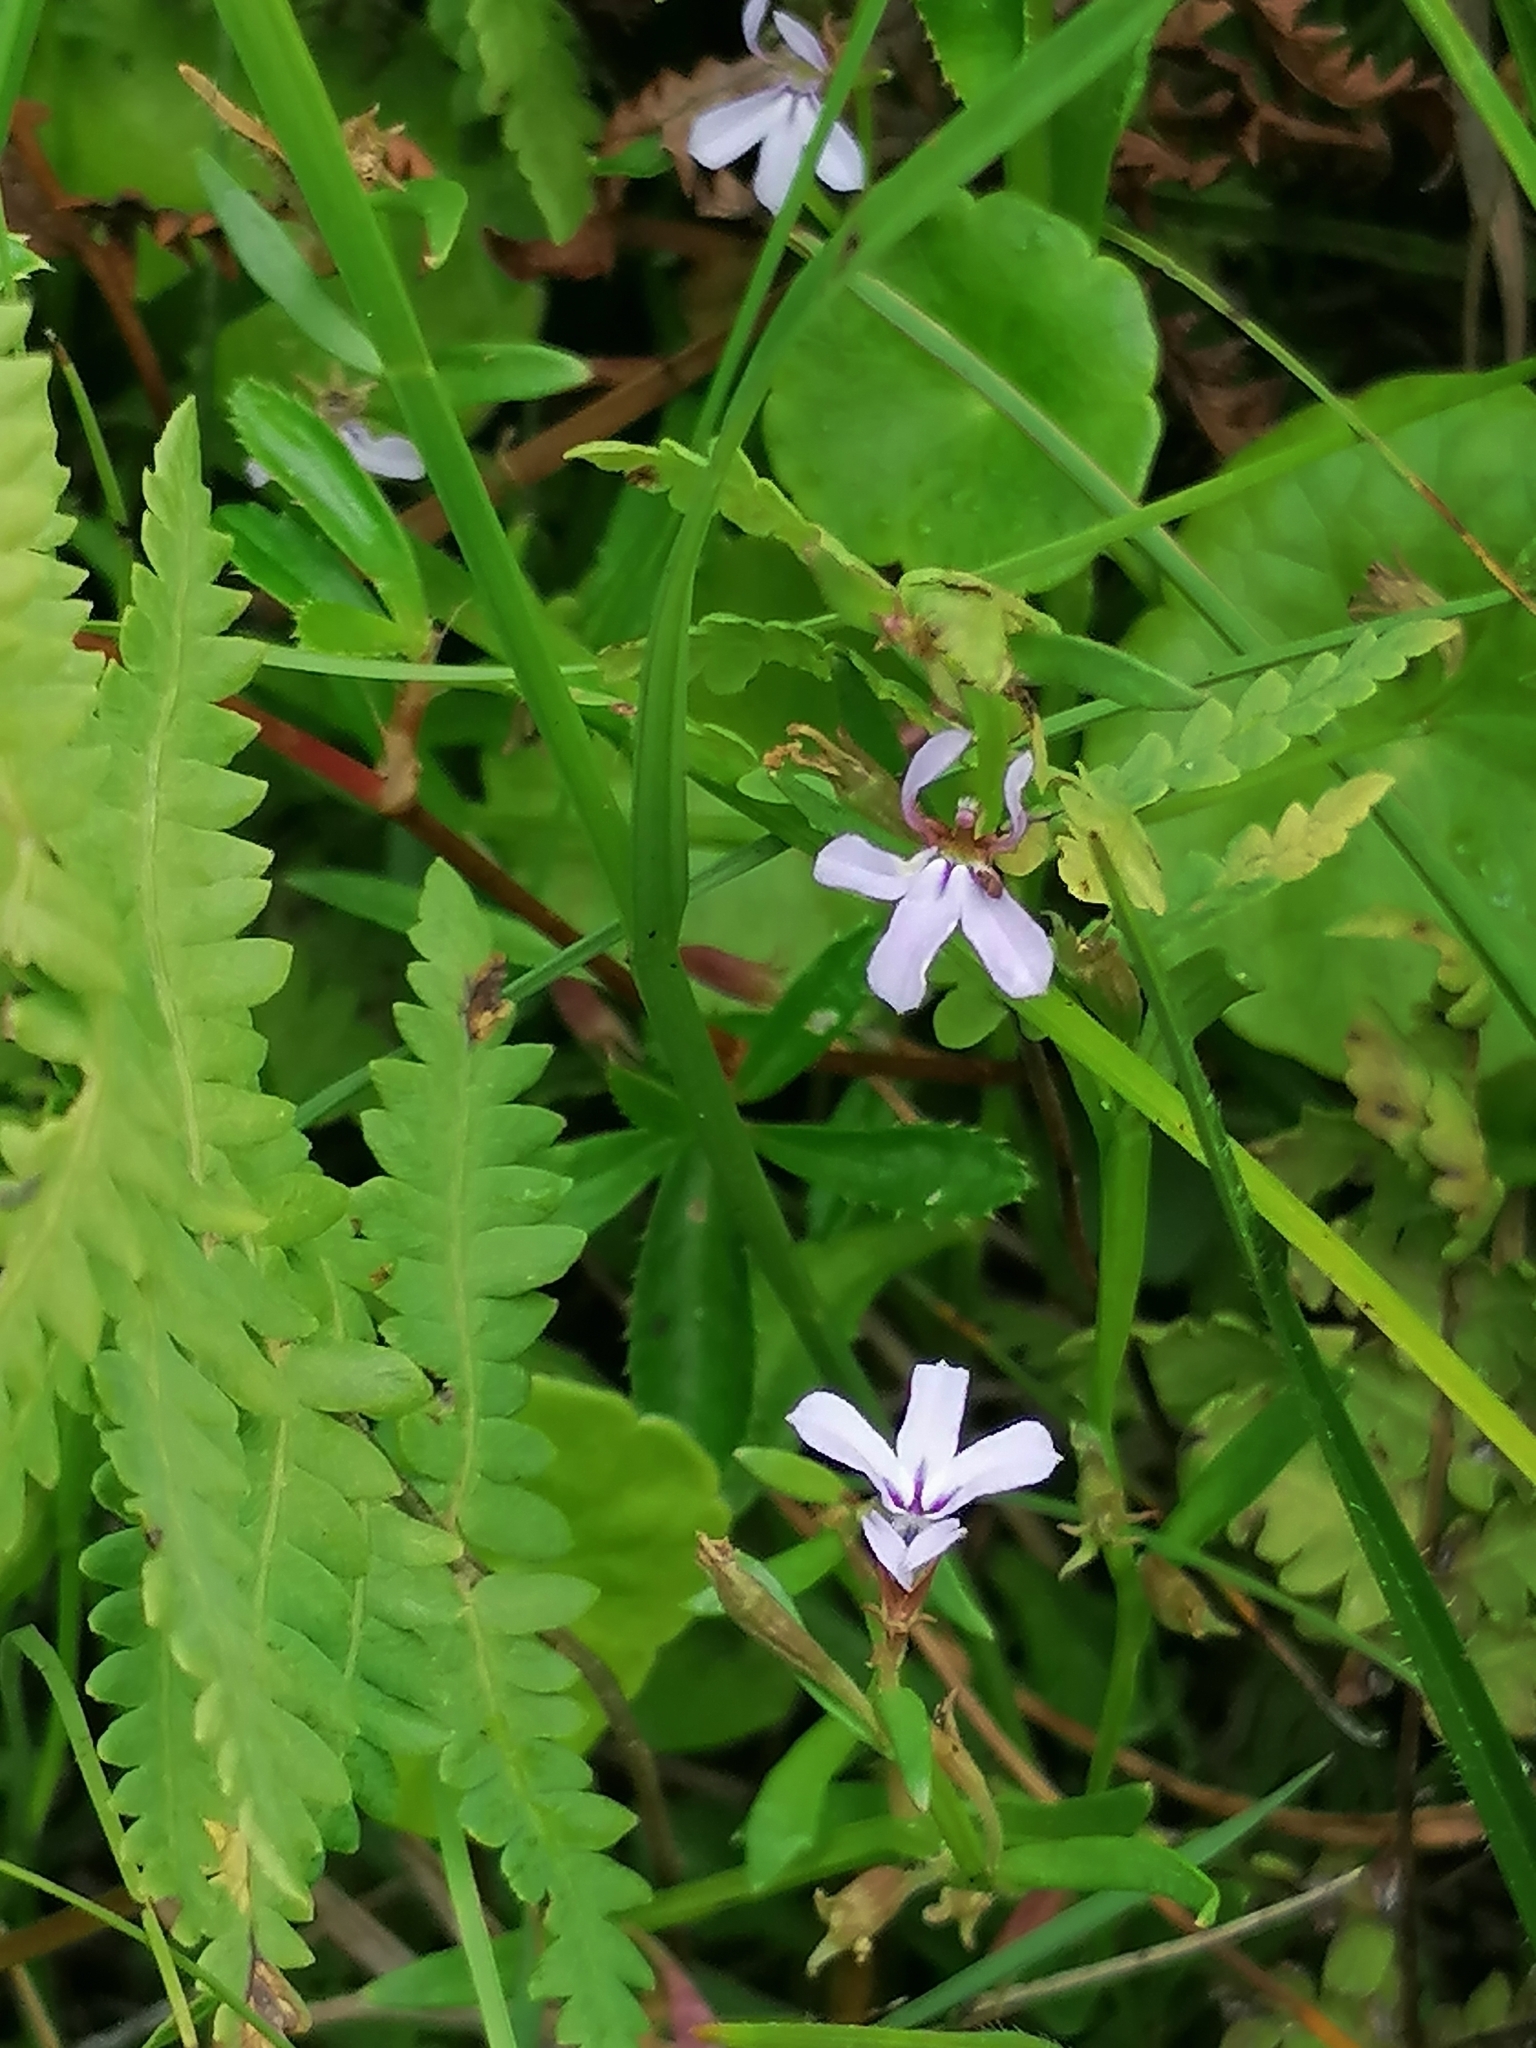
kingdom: Plantae
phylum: Tracheophyta
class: Magnoliopsida
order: Asterales
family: Campanulaceae
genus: Lobelia
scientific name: Lobelia anceps
